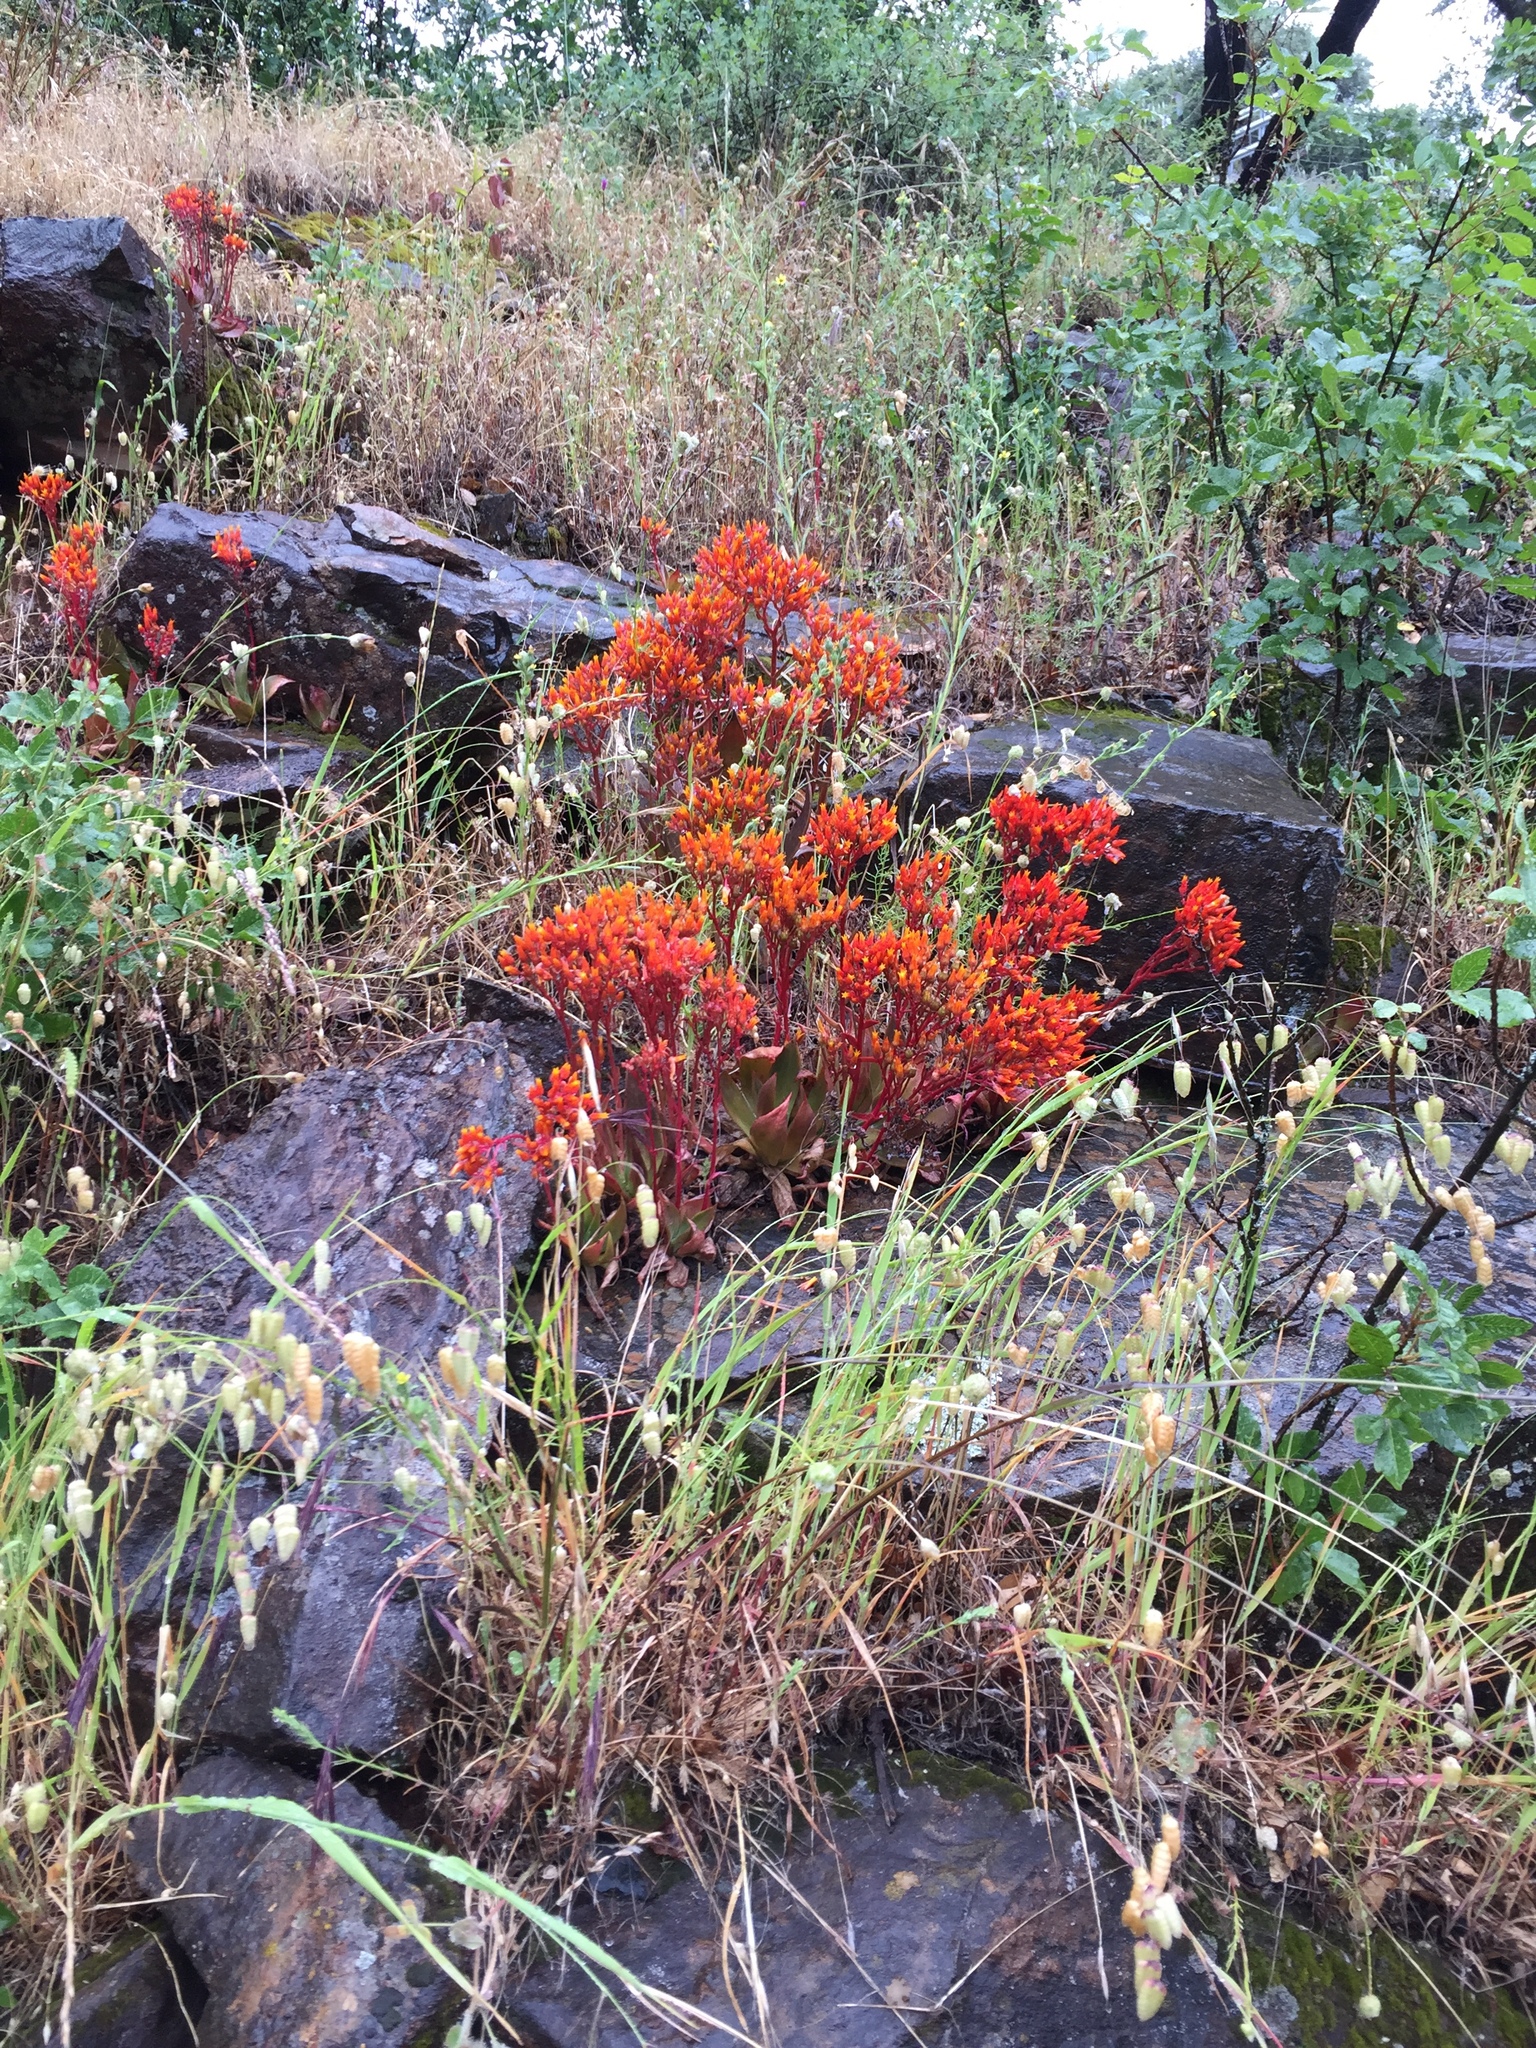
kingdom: Plantae
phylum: Tracheophyta
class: Magnoliopsida
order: Saxifragales
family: Crassulaceae
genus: Dudleya
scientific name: Dudleya cymosa
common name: Canyon dudleya
